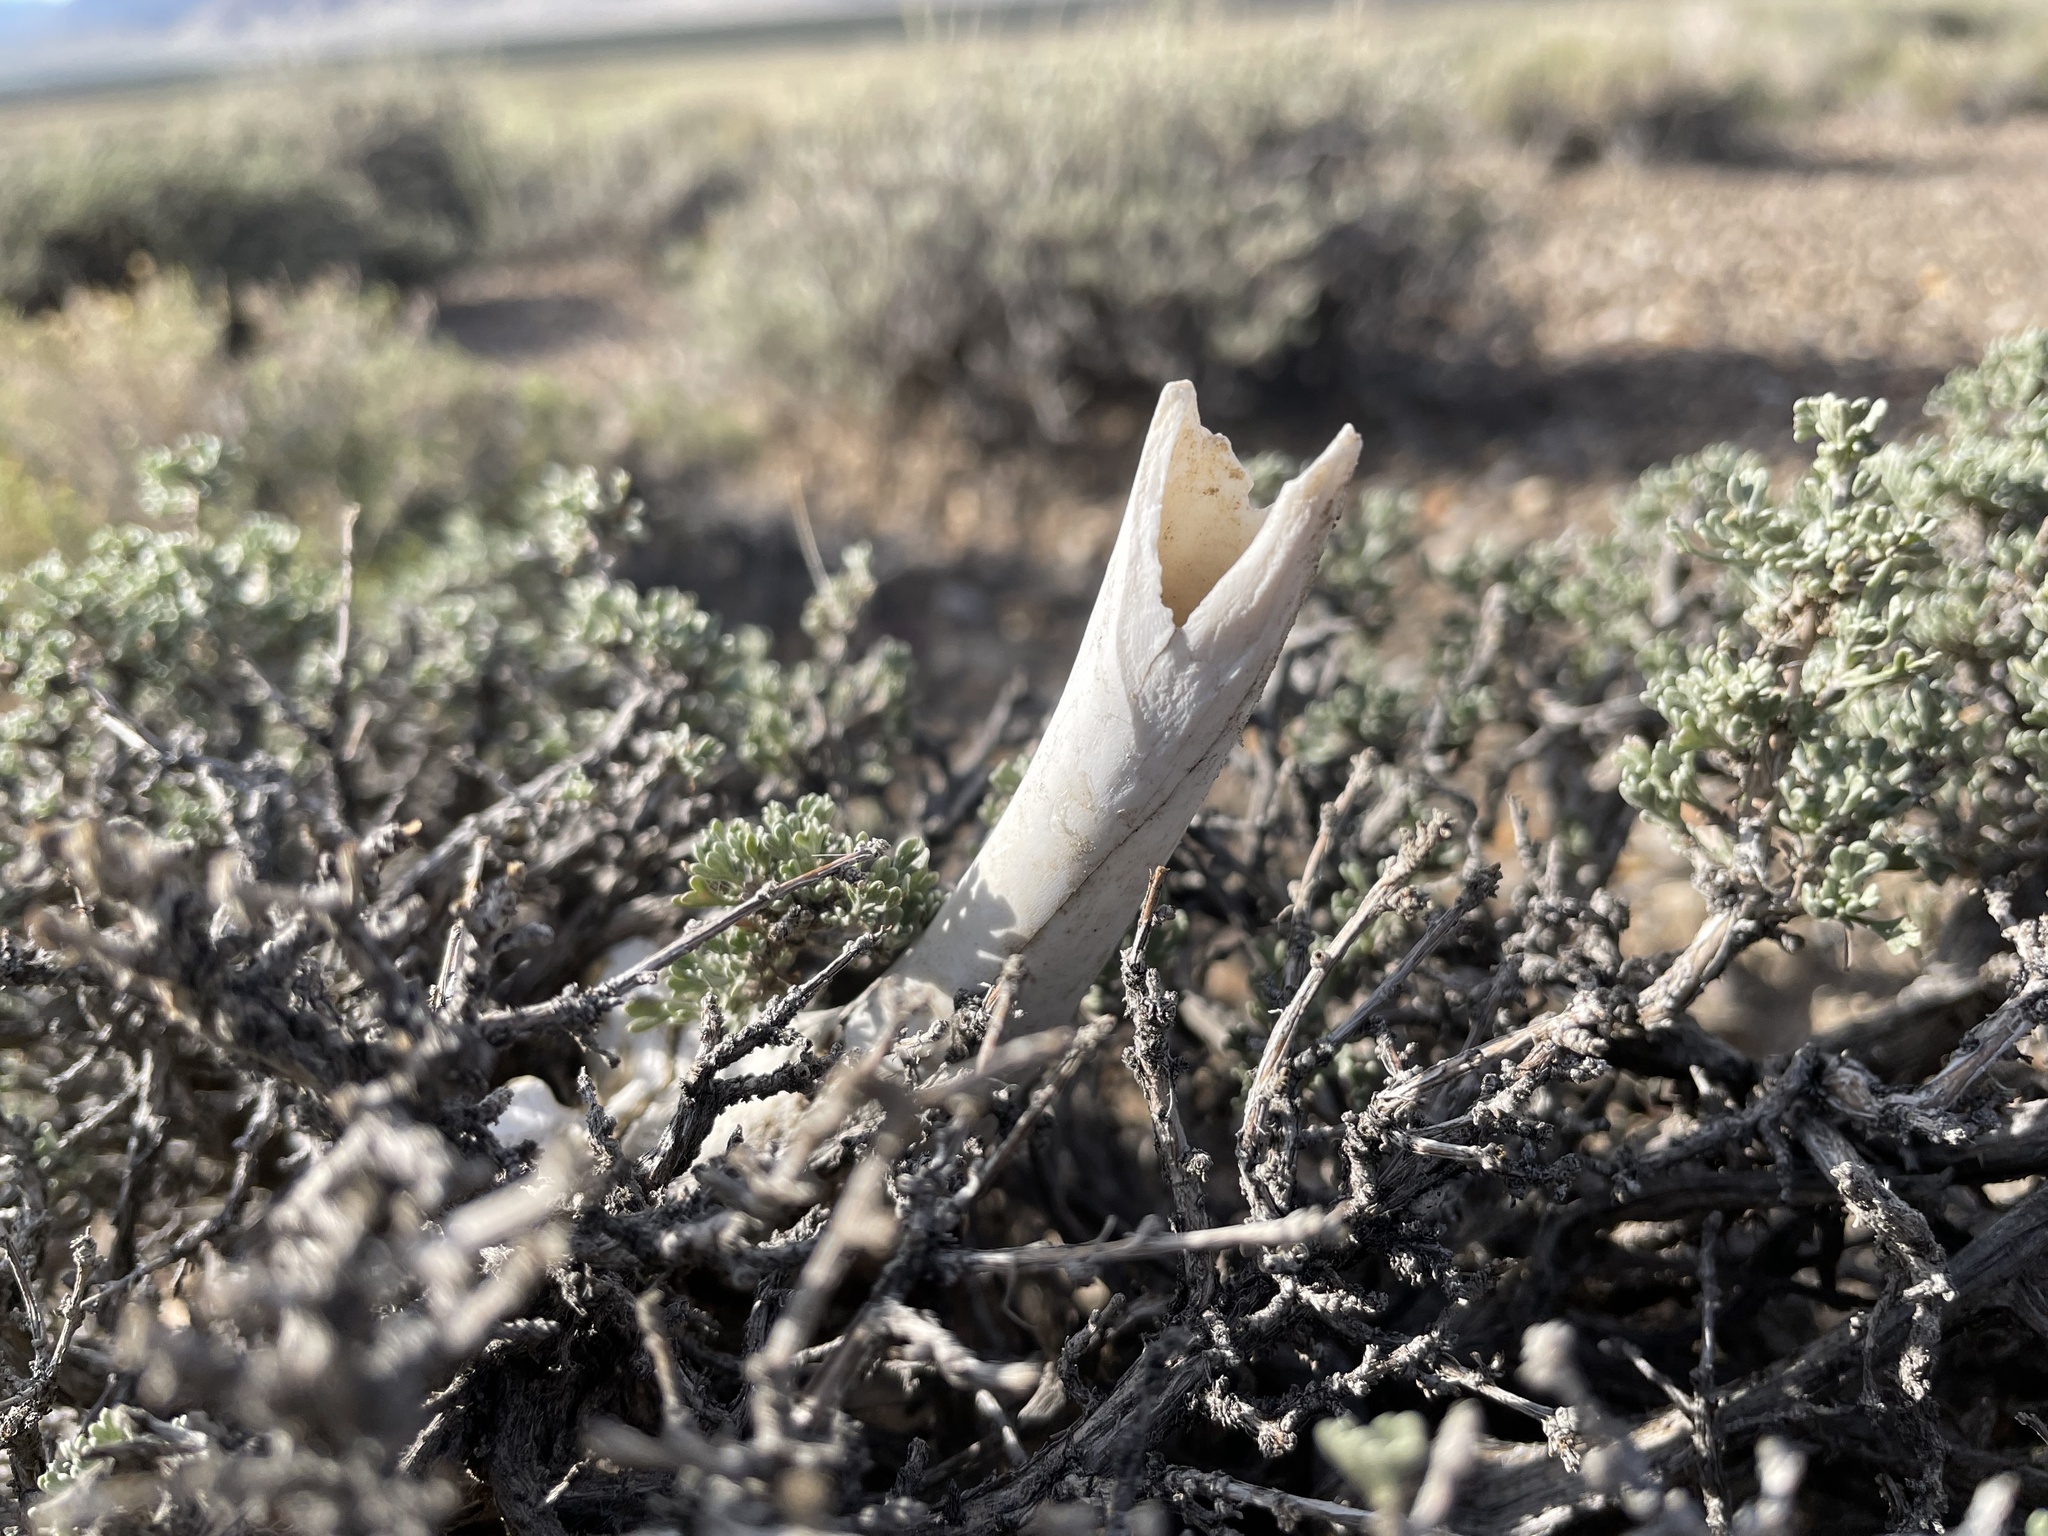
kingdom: Animalia
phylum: Chordata
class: Mammalia
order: Lagomorpha
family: Leporidae
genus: Lepus
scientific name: Lepus californicus
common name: Black-tailed jackrabbit
